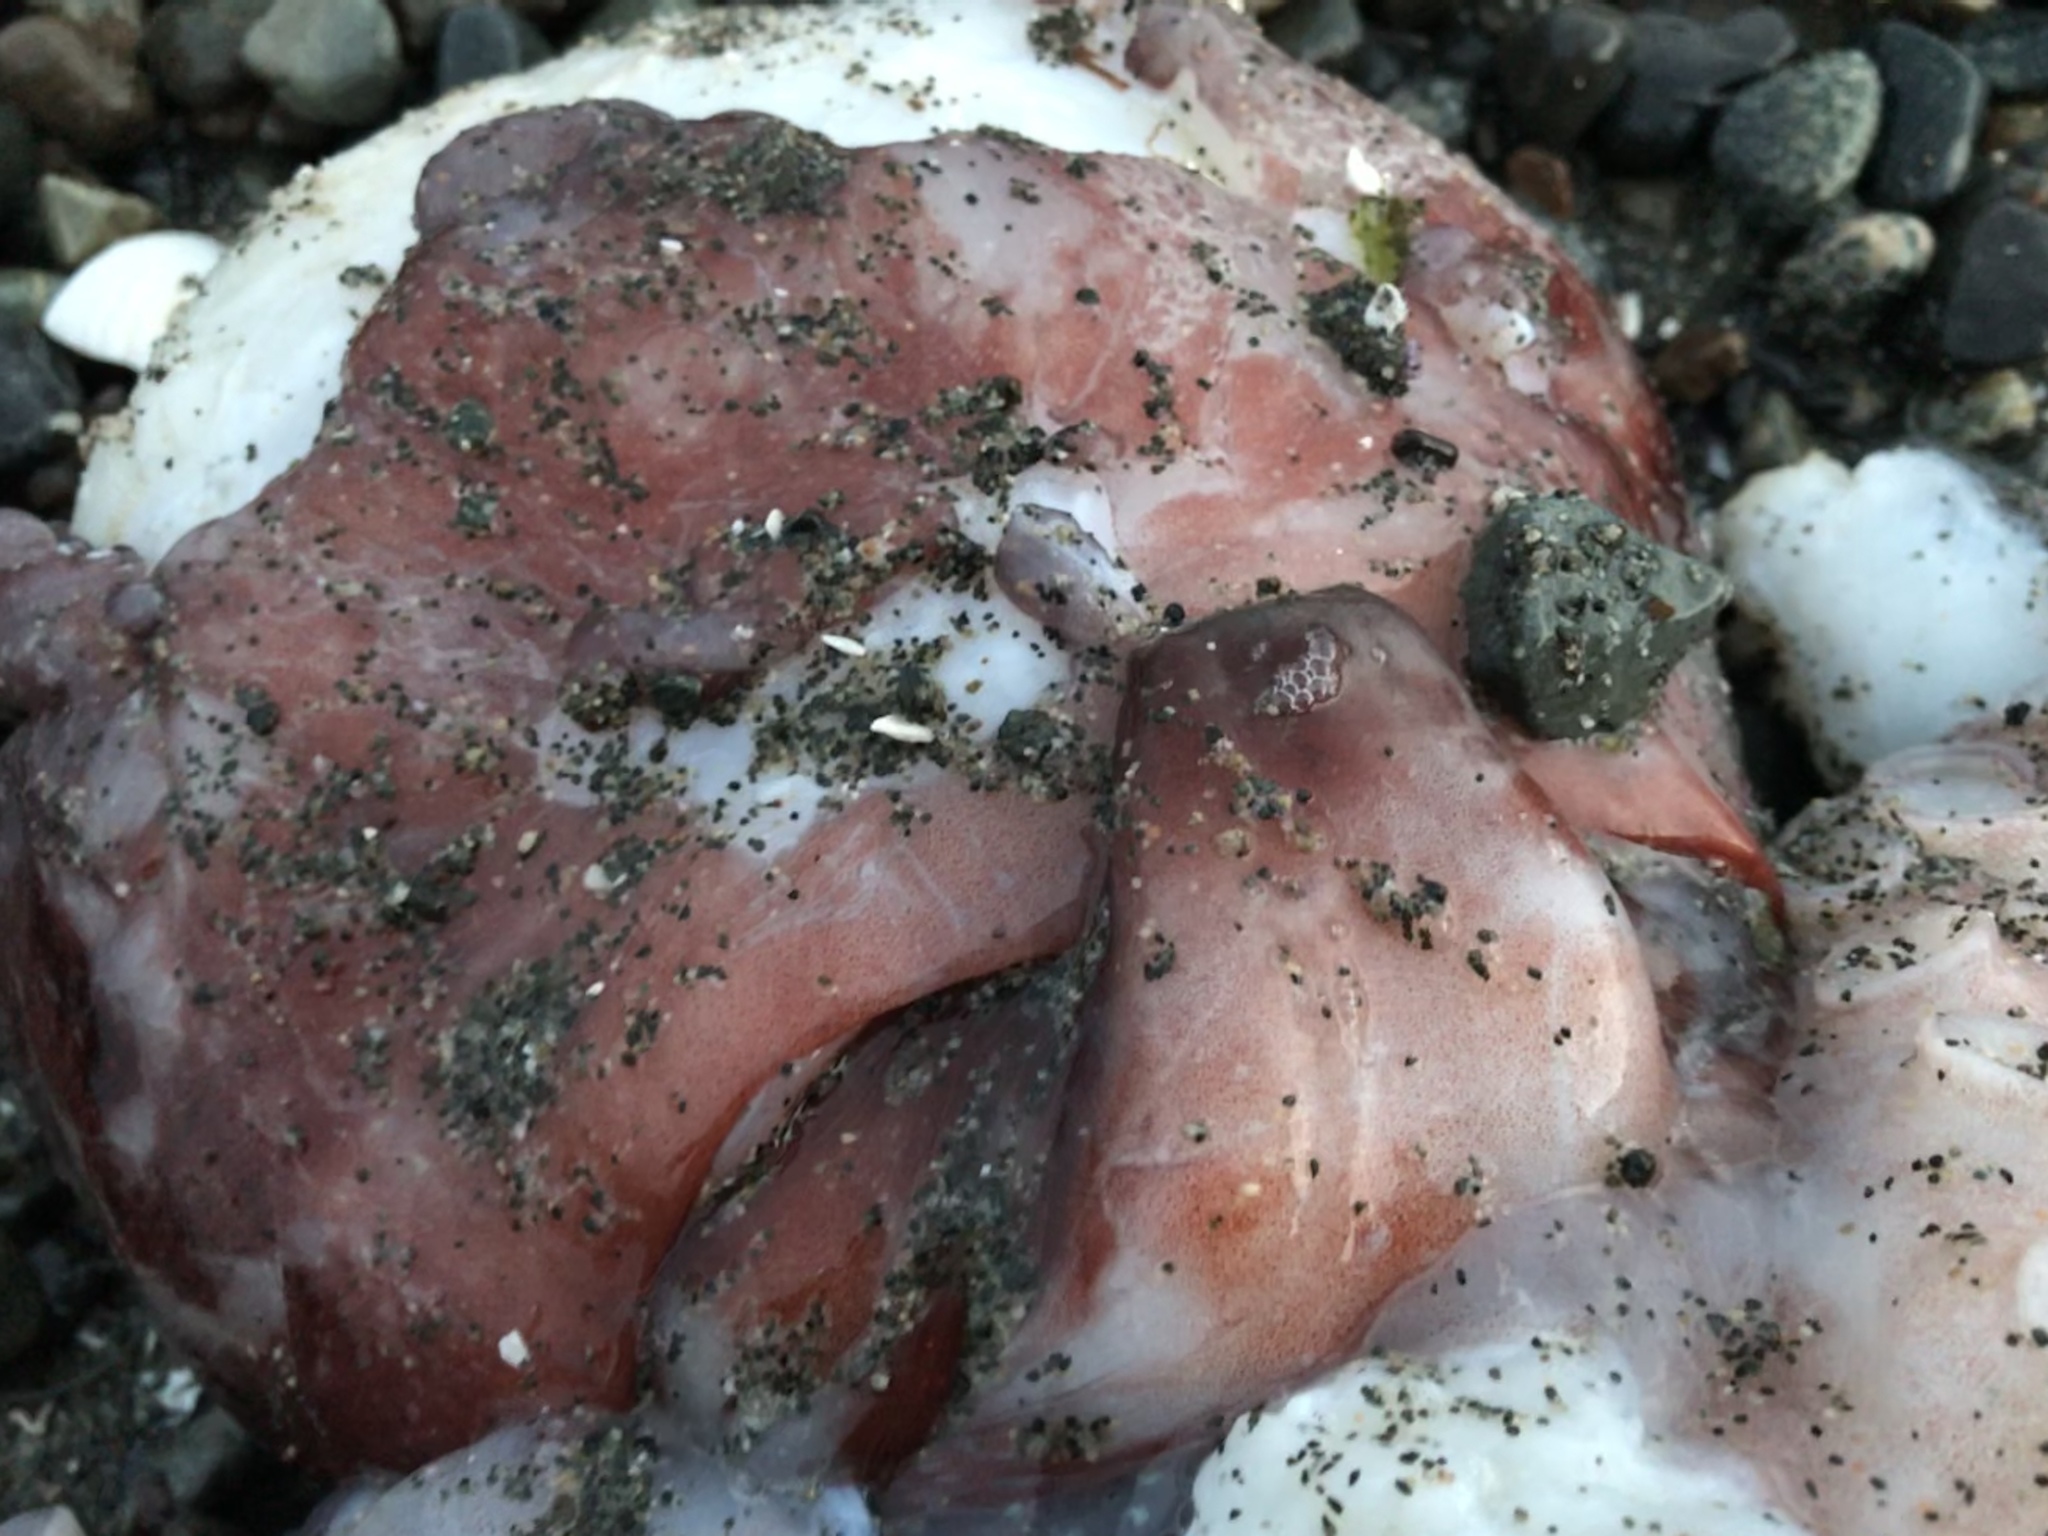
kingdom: Animalia
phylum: Mollusca
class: Cephalopoda
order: Octopoda
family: Enteroctopodidae
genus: Enteroctopus
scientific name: Enteroctopus dofleini
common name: Giant north pacific octopus
